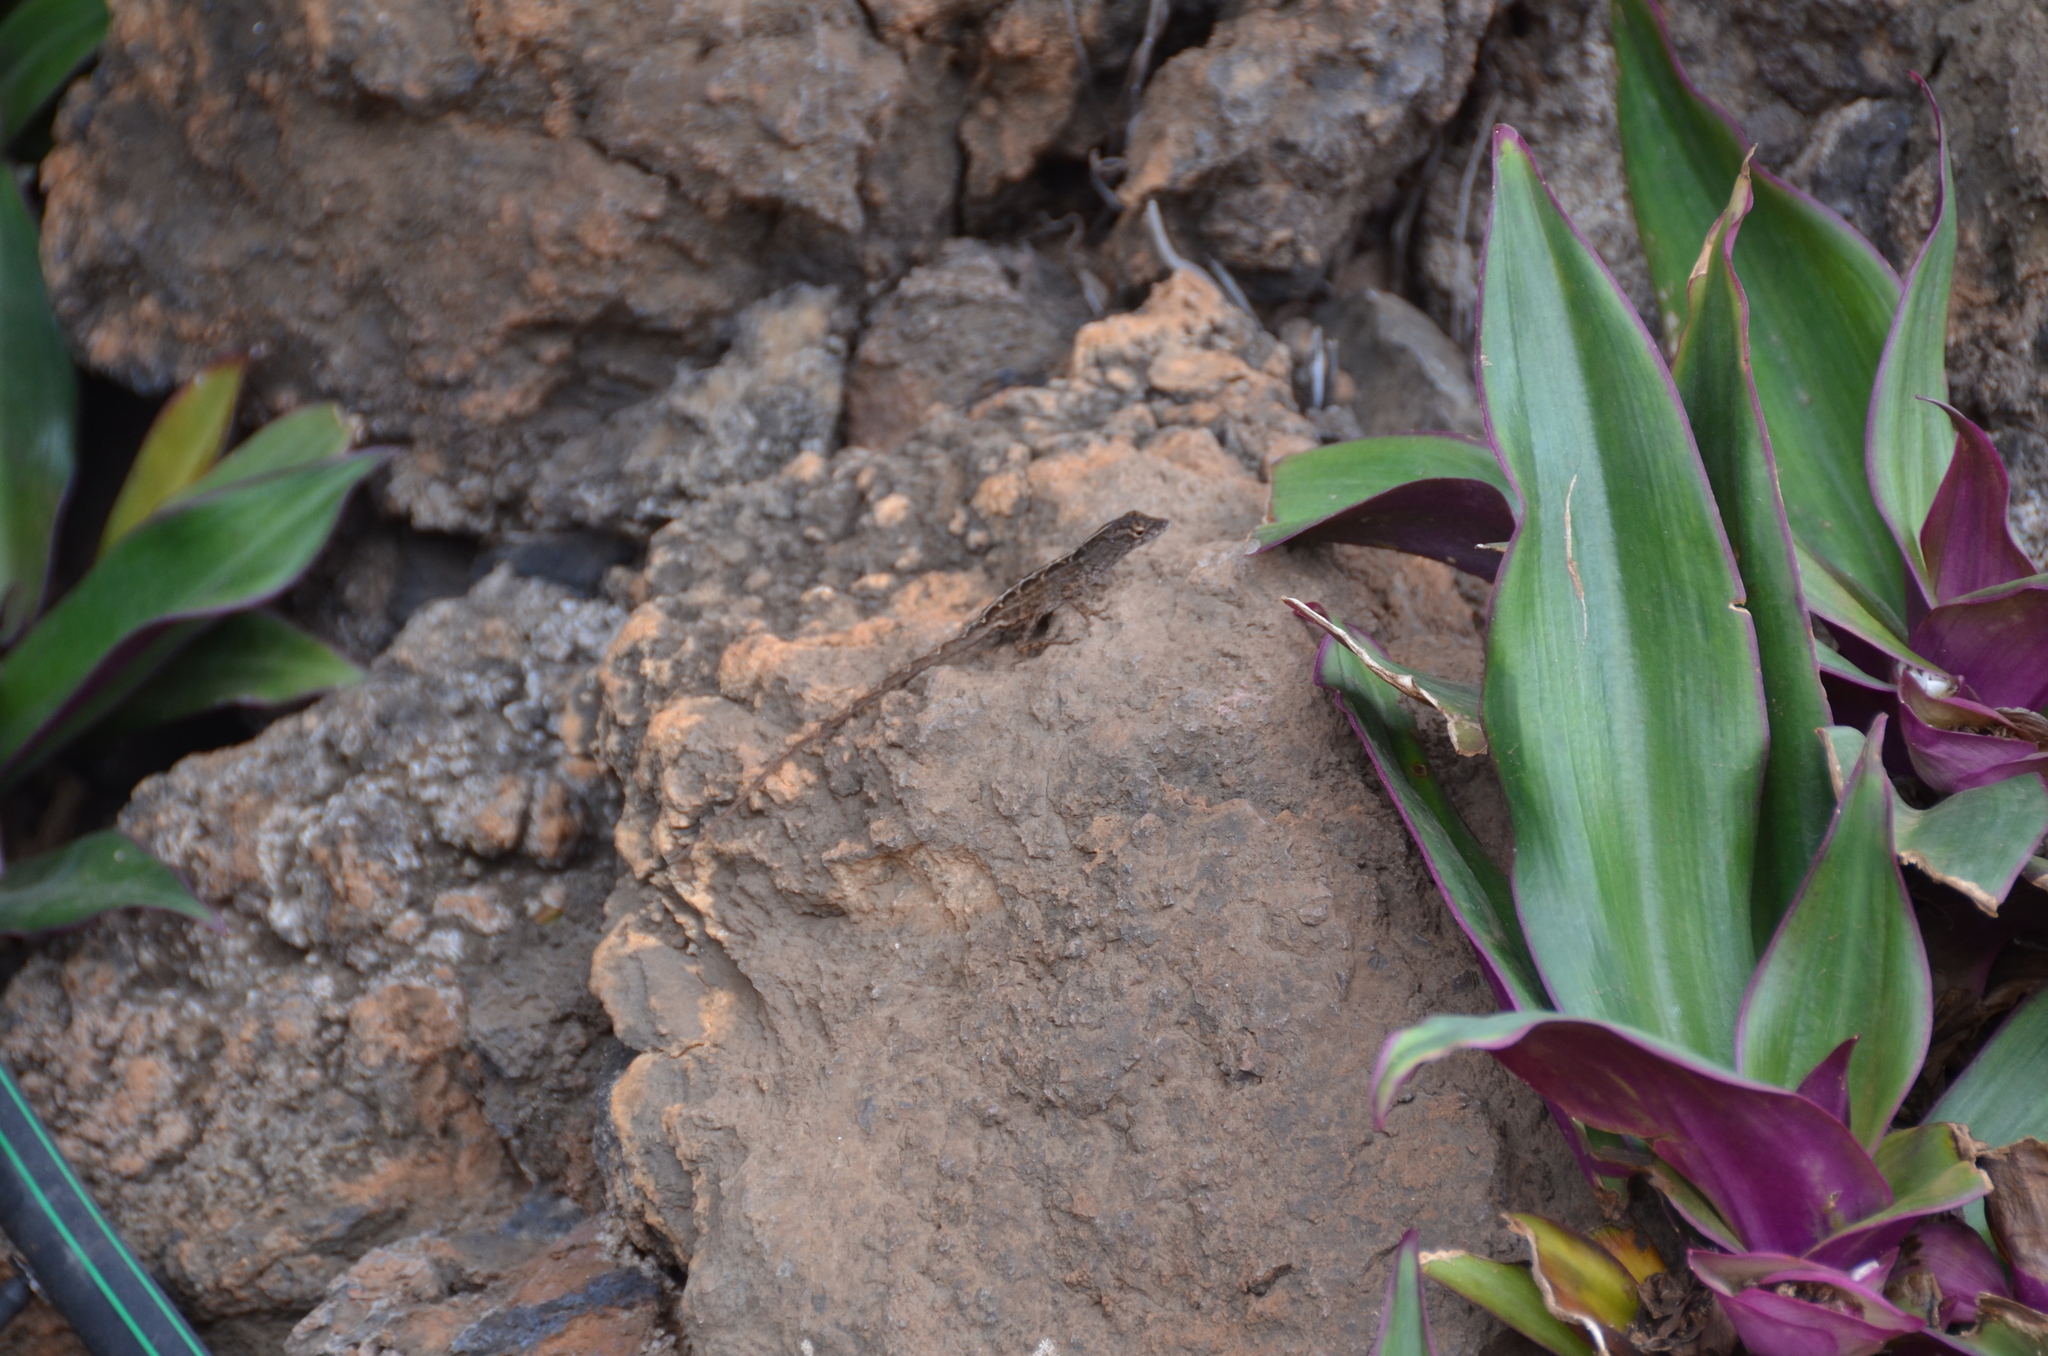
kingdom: Animalia
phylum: Chordata
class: Squamata
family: Dactyloidae
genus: Anolis
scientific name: Anolis sagrei
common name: Brown anole
